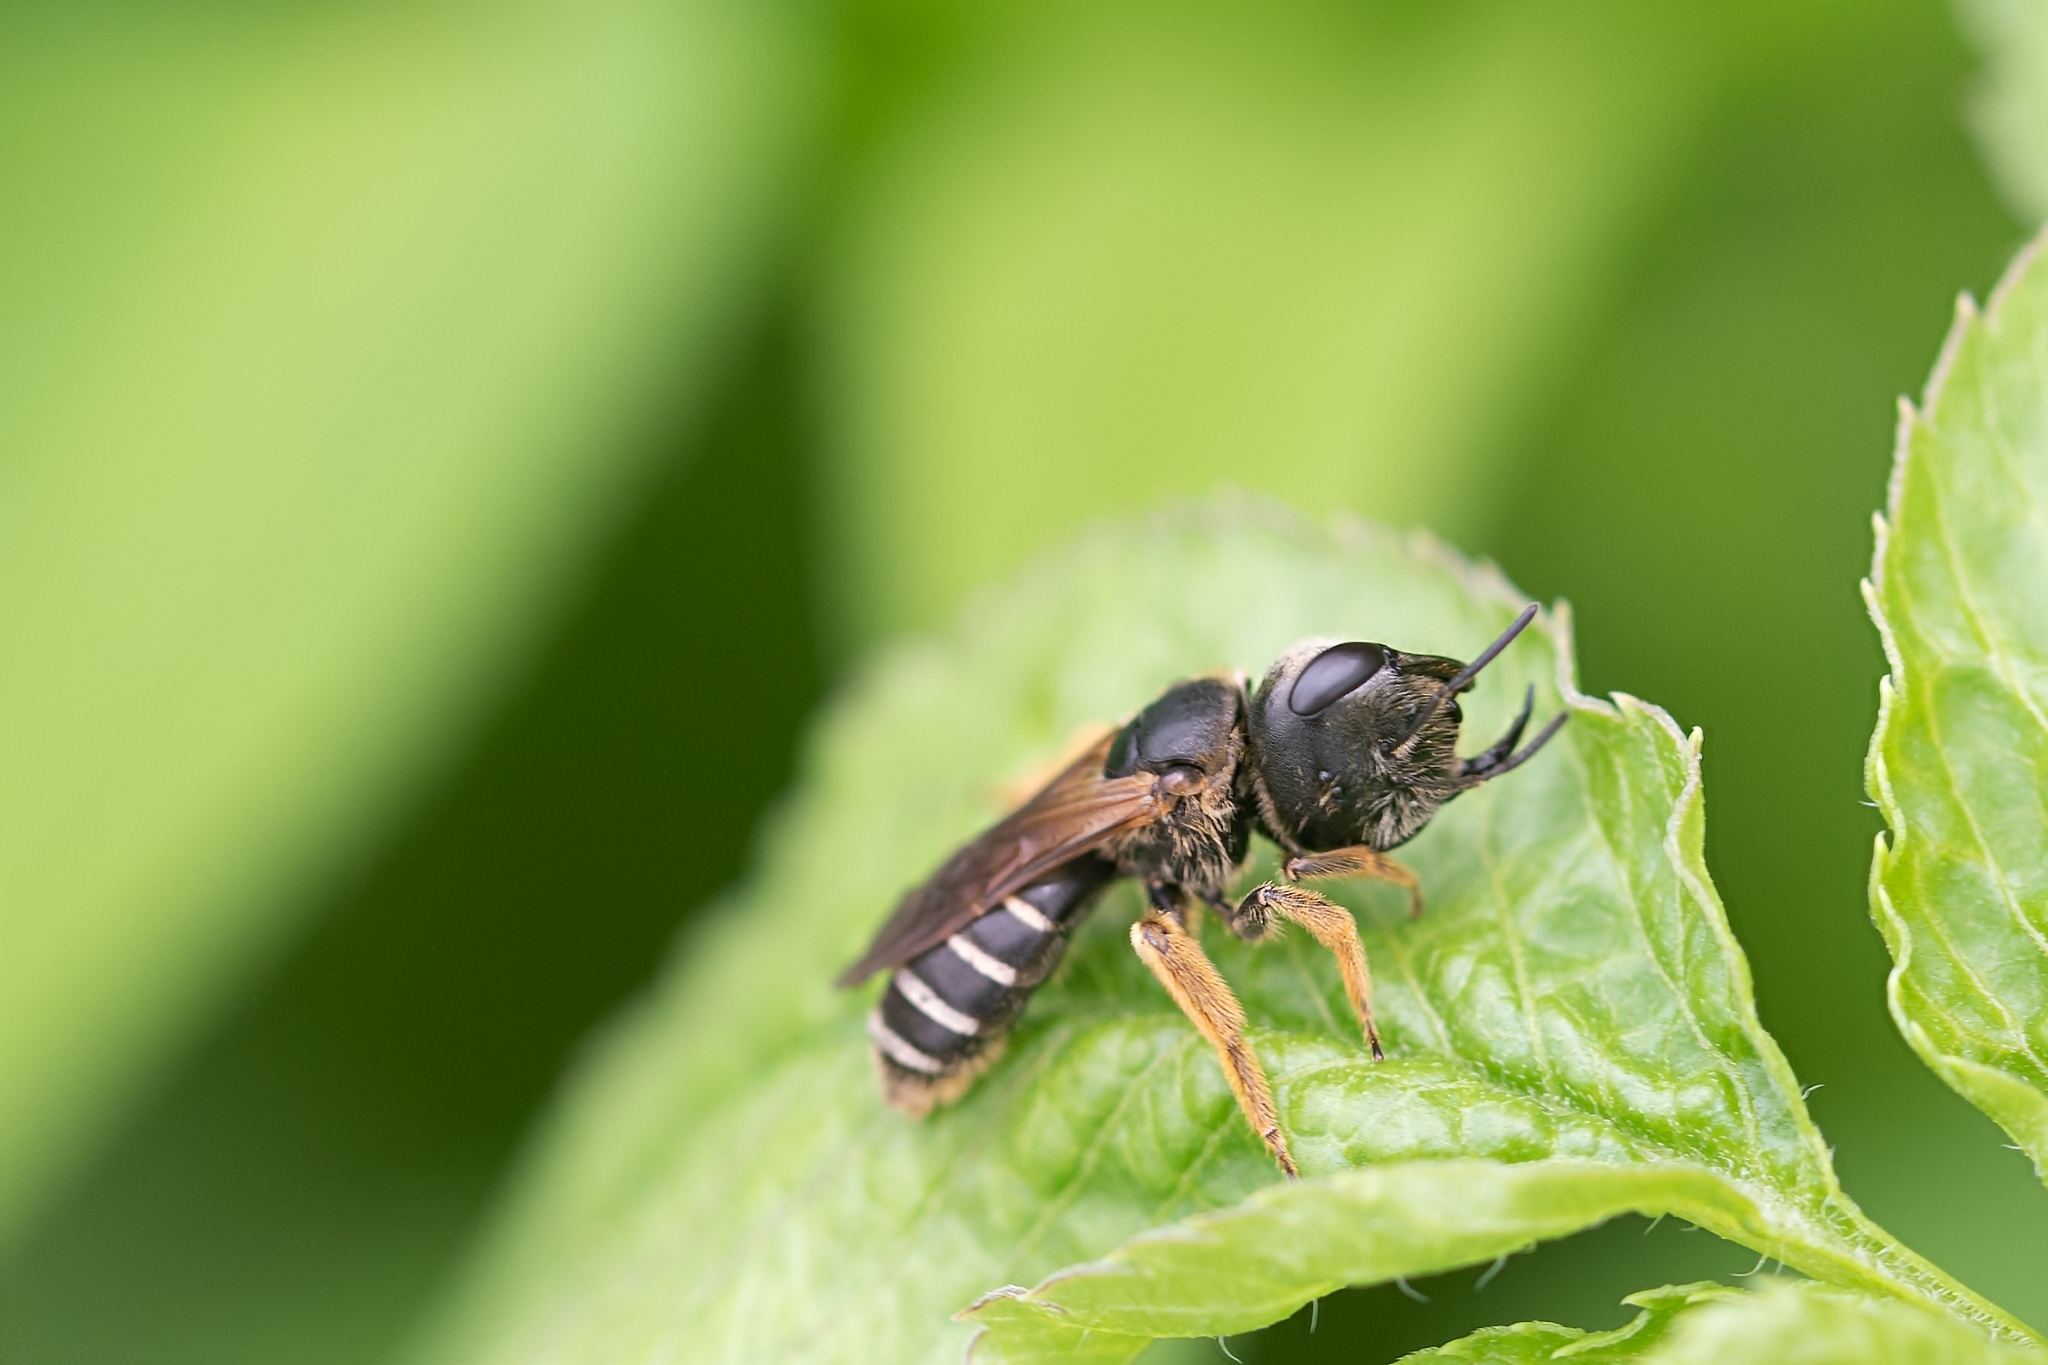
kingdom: Animalia
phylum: Arthropoda
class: Insecta
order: Hymenoptera
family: Halictidae
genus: Halictus
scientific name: Halictus poeyi
